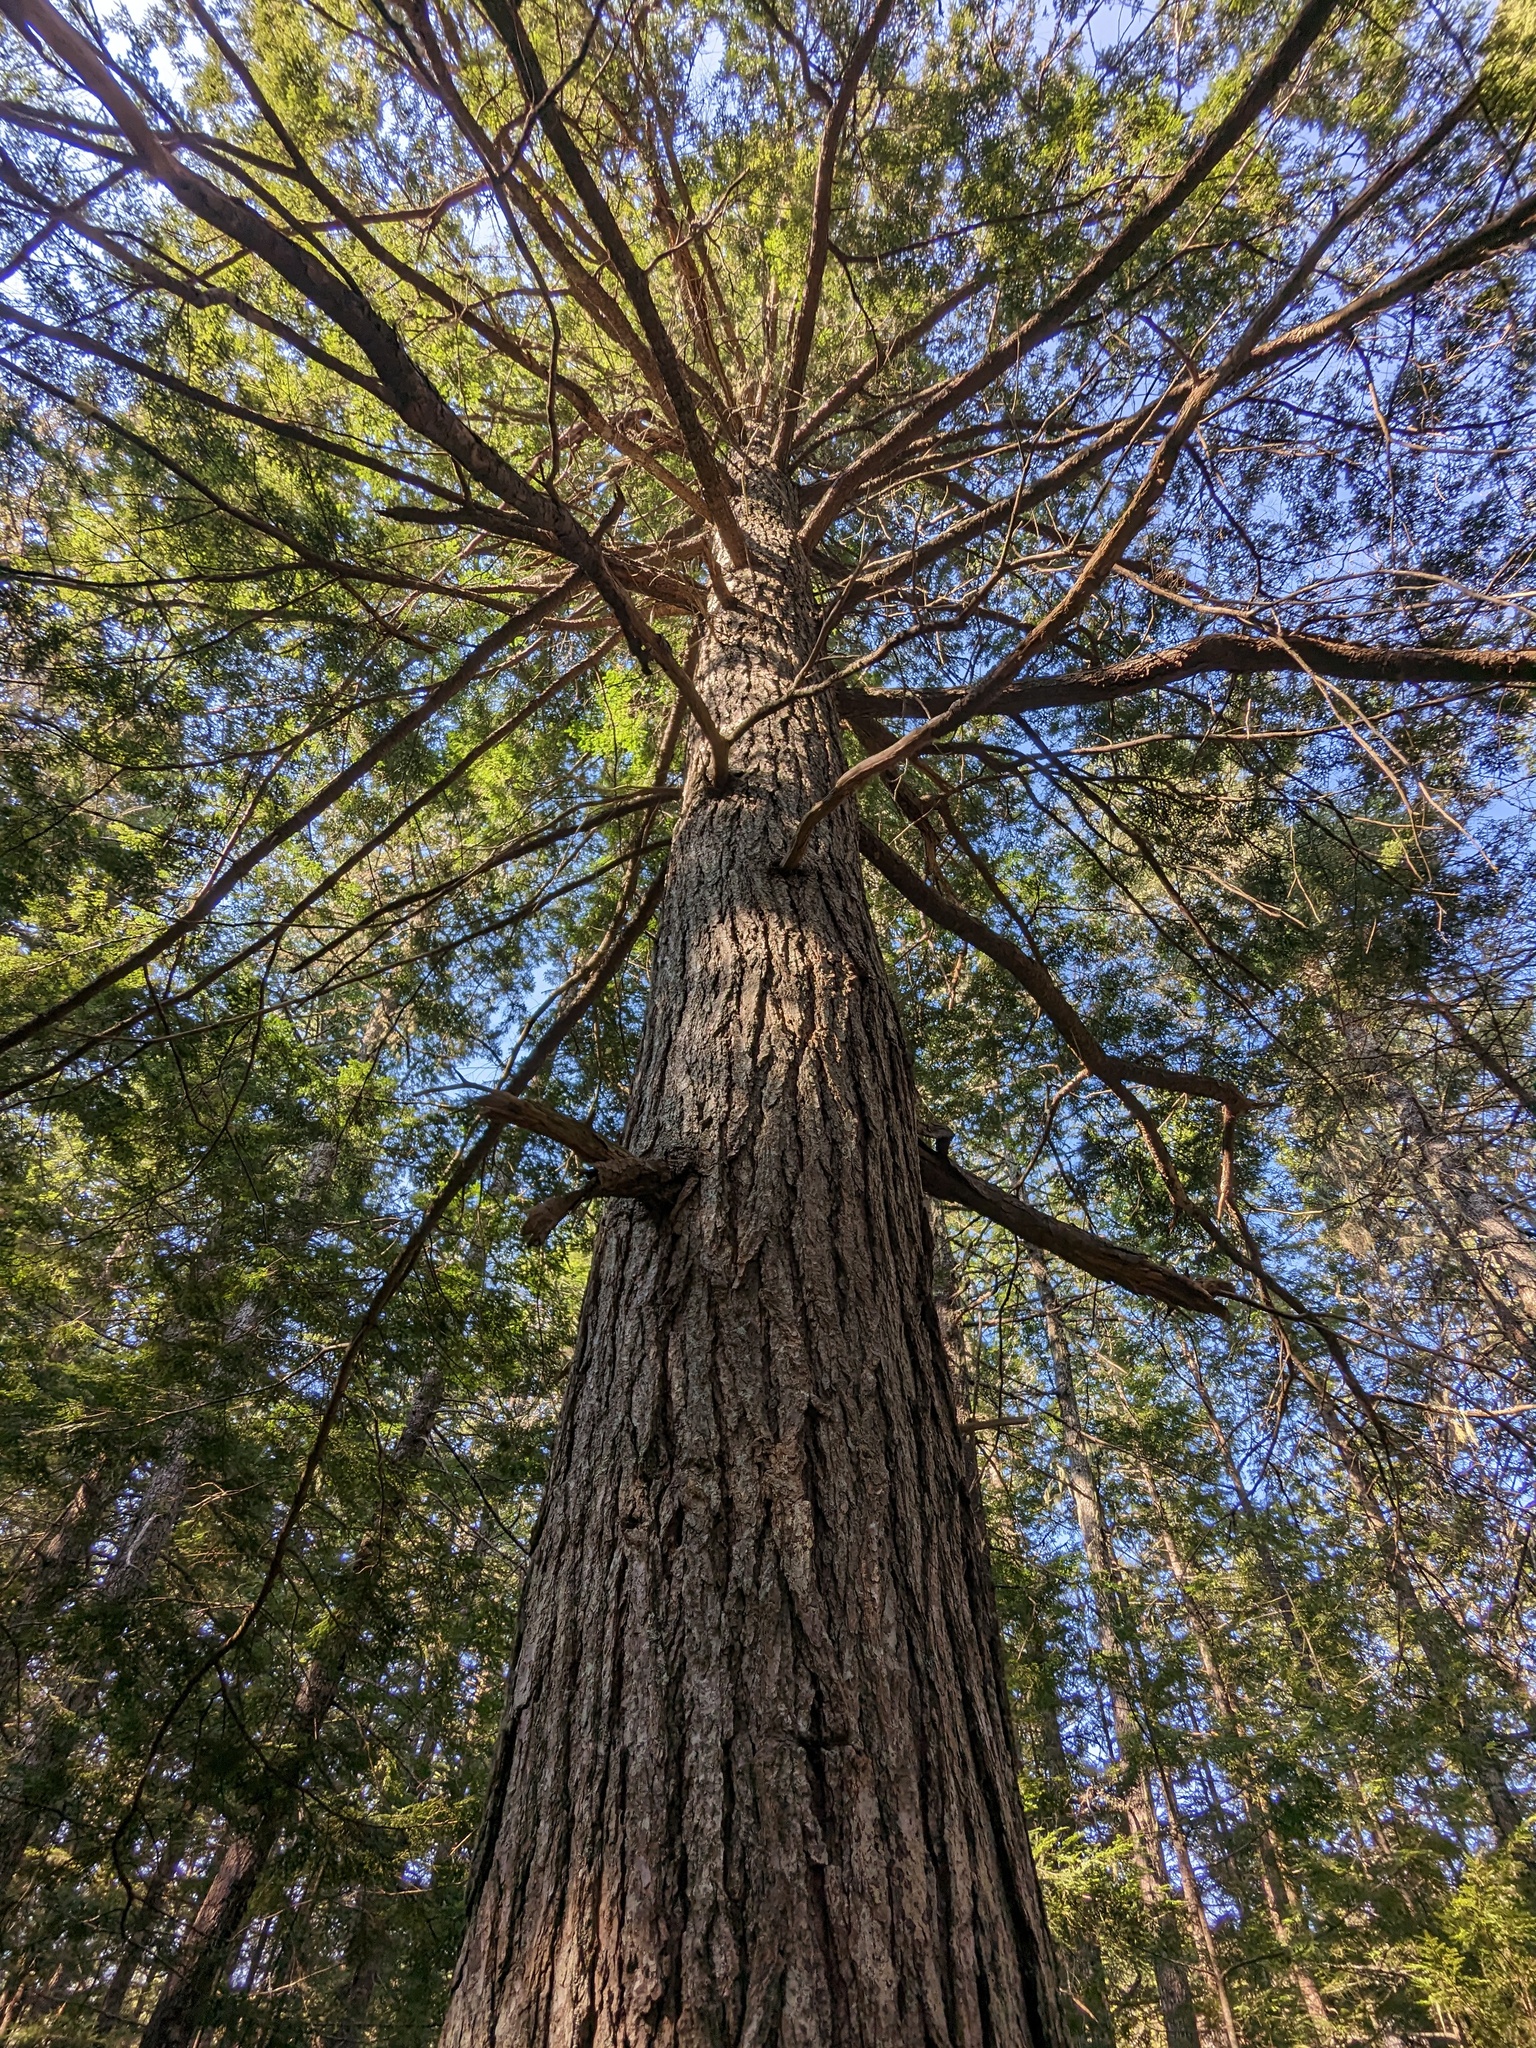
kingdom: Plantae
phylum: Tracheophyta
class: Pinopsida
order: Pinales
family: Pinaceae
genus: Tsuga
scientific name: Tsuga canadensis
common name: Eastern hemlock
